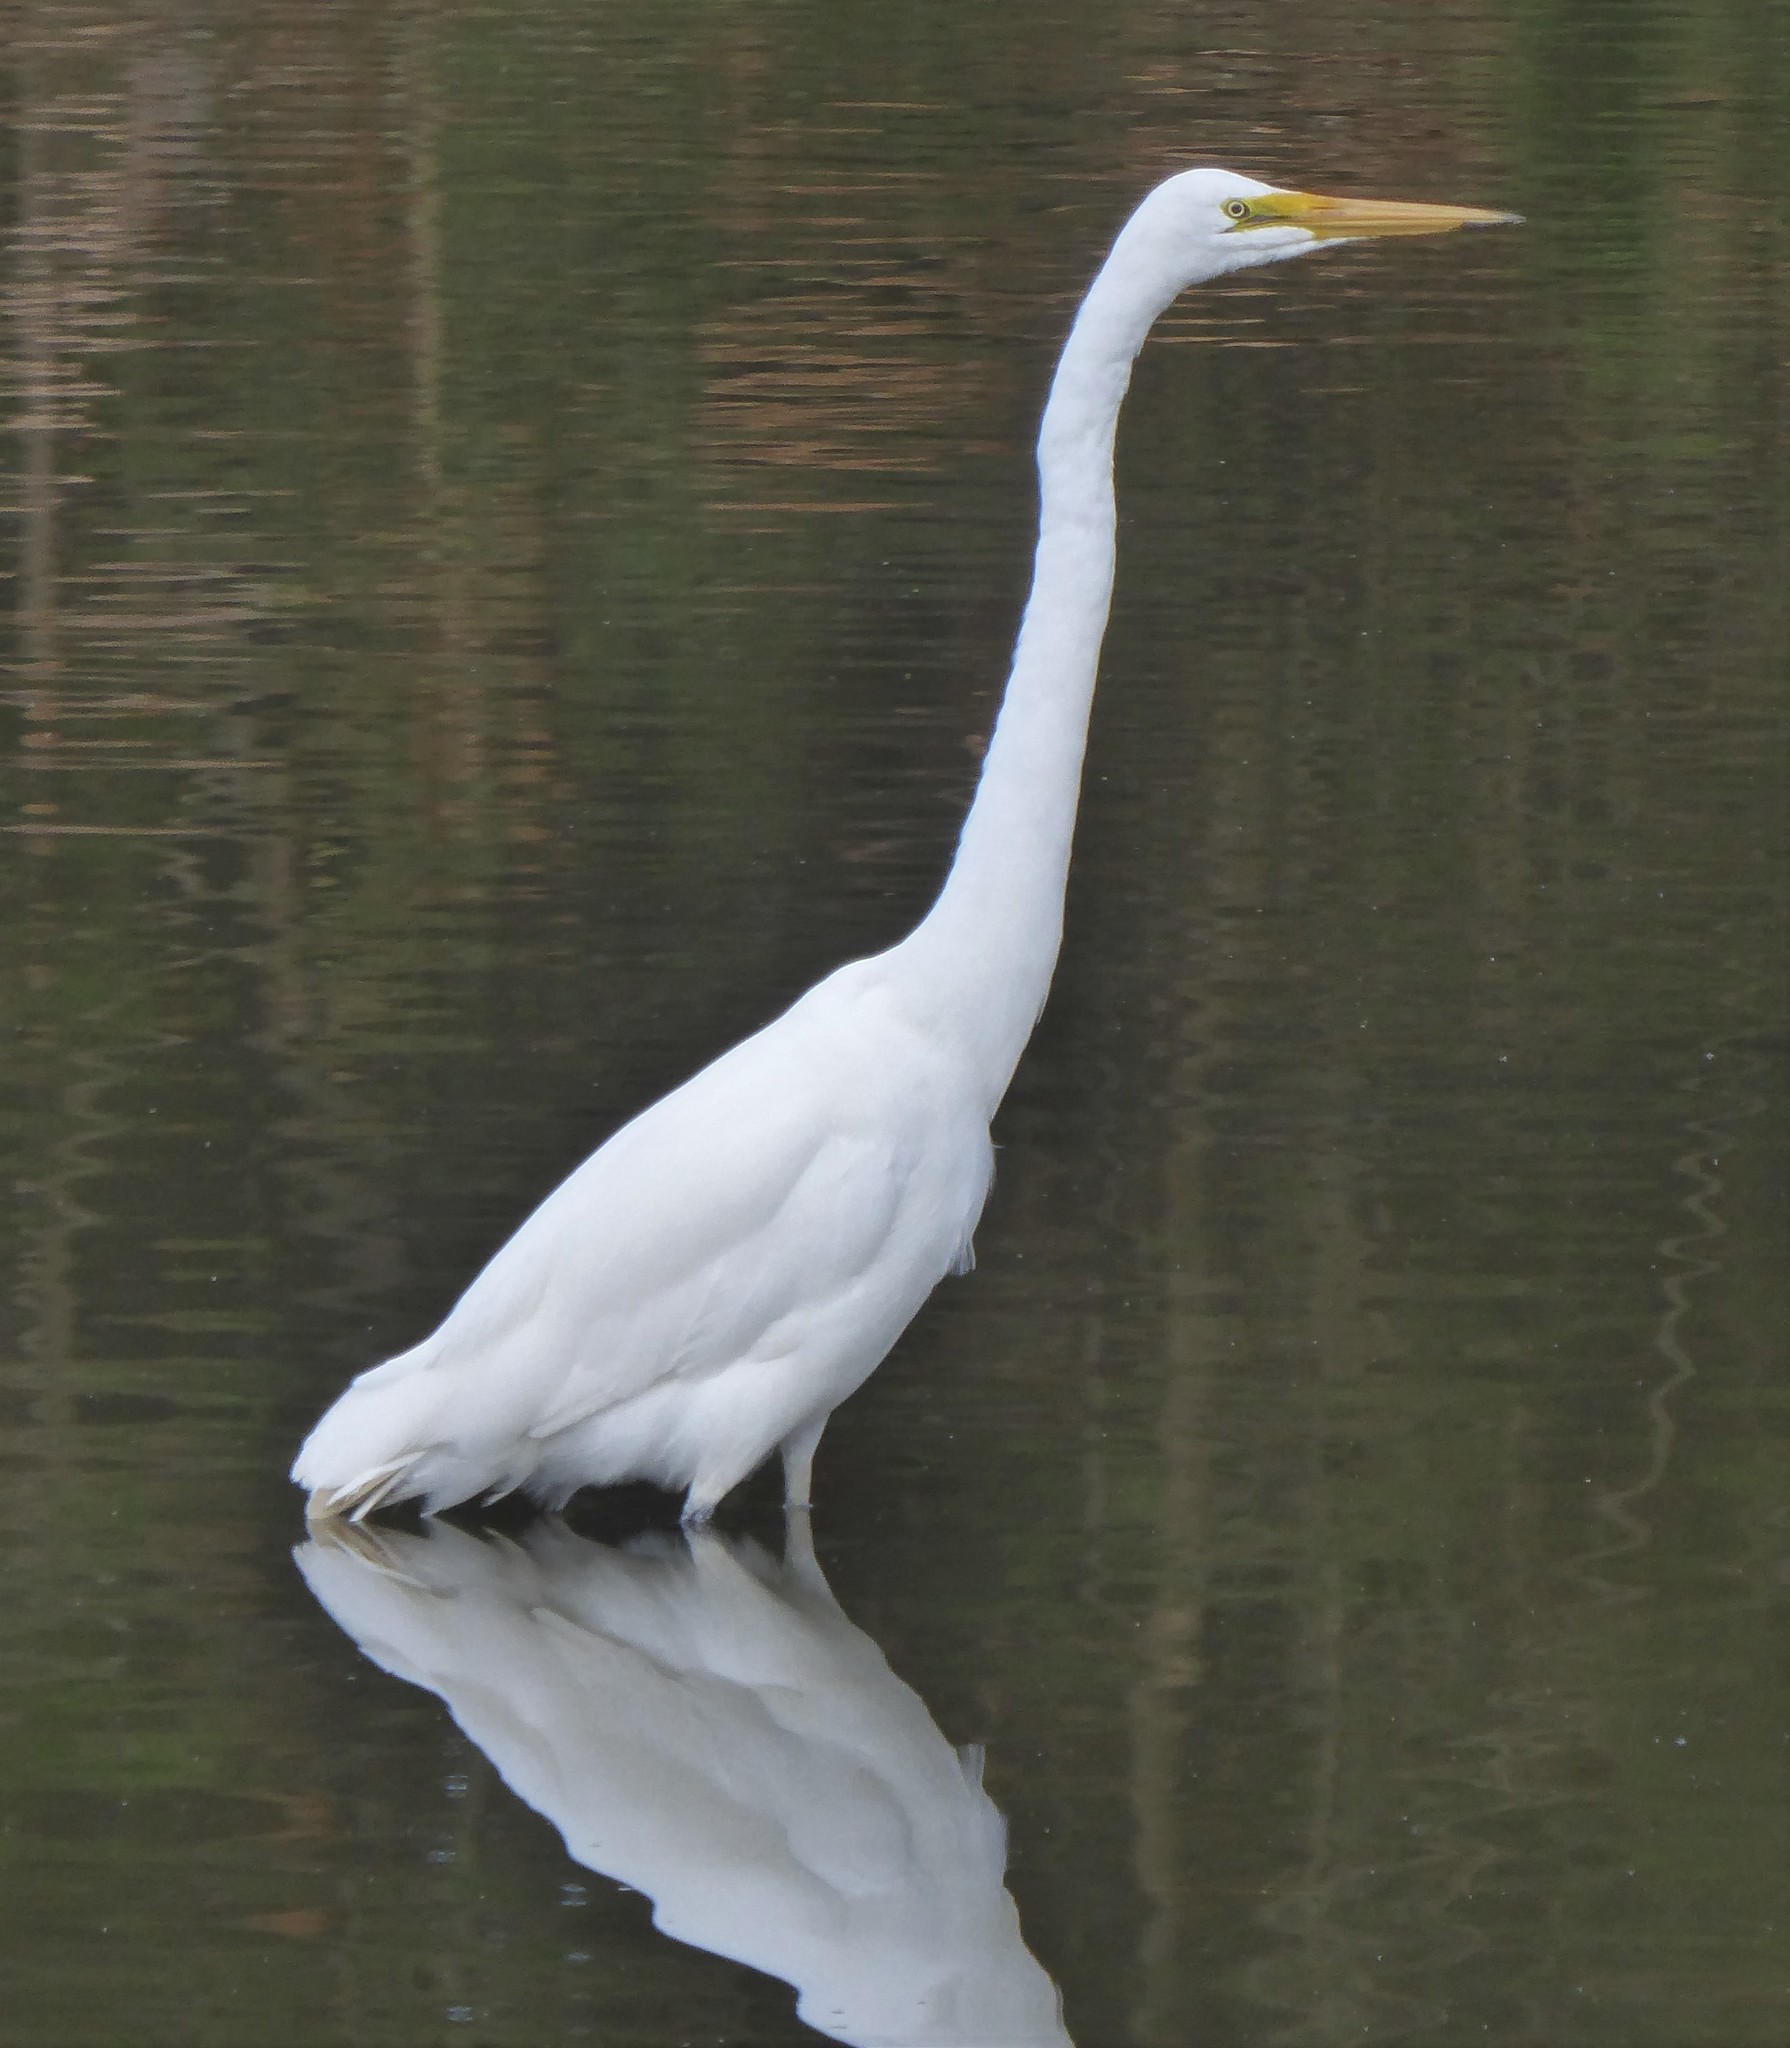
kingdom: Animalia
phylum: Chordata
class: Aves
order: Pelecaniformes
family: Ardeidae
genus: Ardea
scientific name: Ardea modesta
